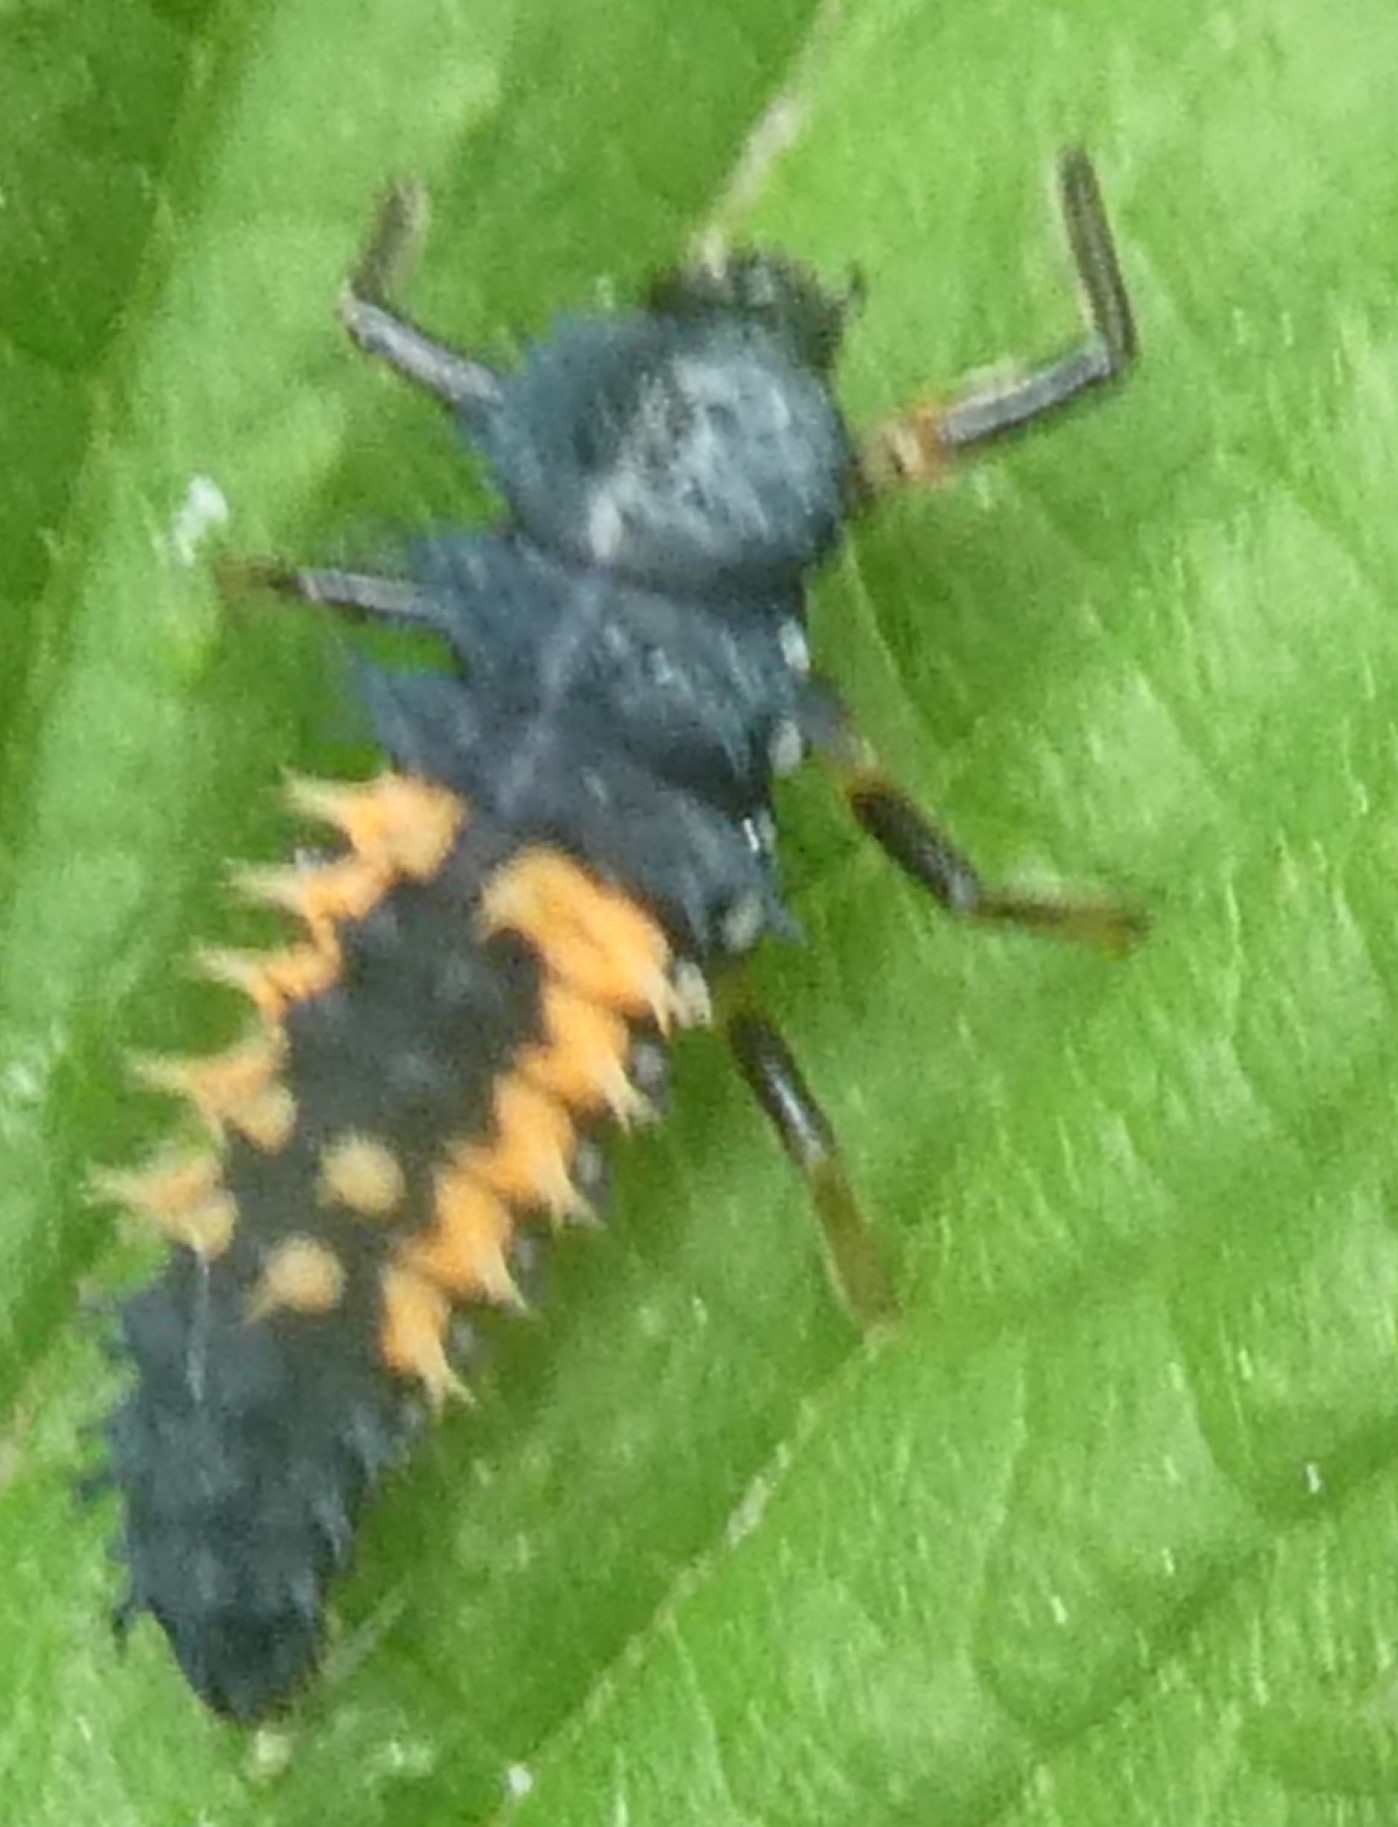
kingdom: Animalia
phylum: Arthropoda
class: Insecta
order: Coleoptera
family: Coccinellidae
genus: Harmonia
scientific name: Harmonia axyridis
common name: Harlequin ladybird
